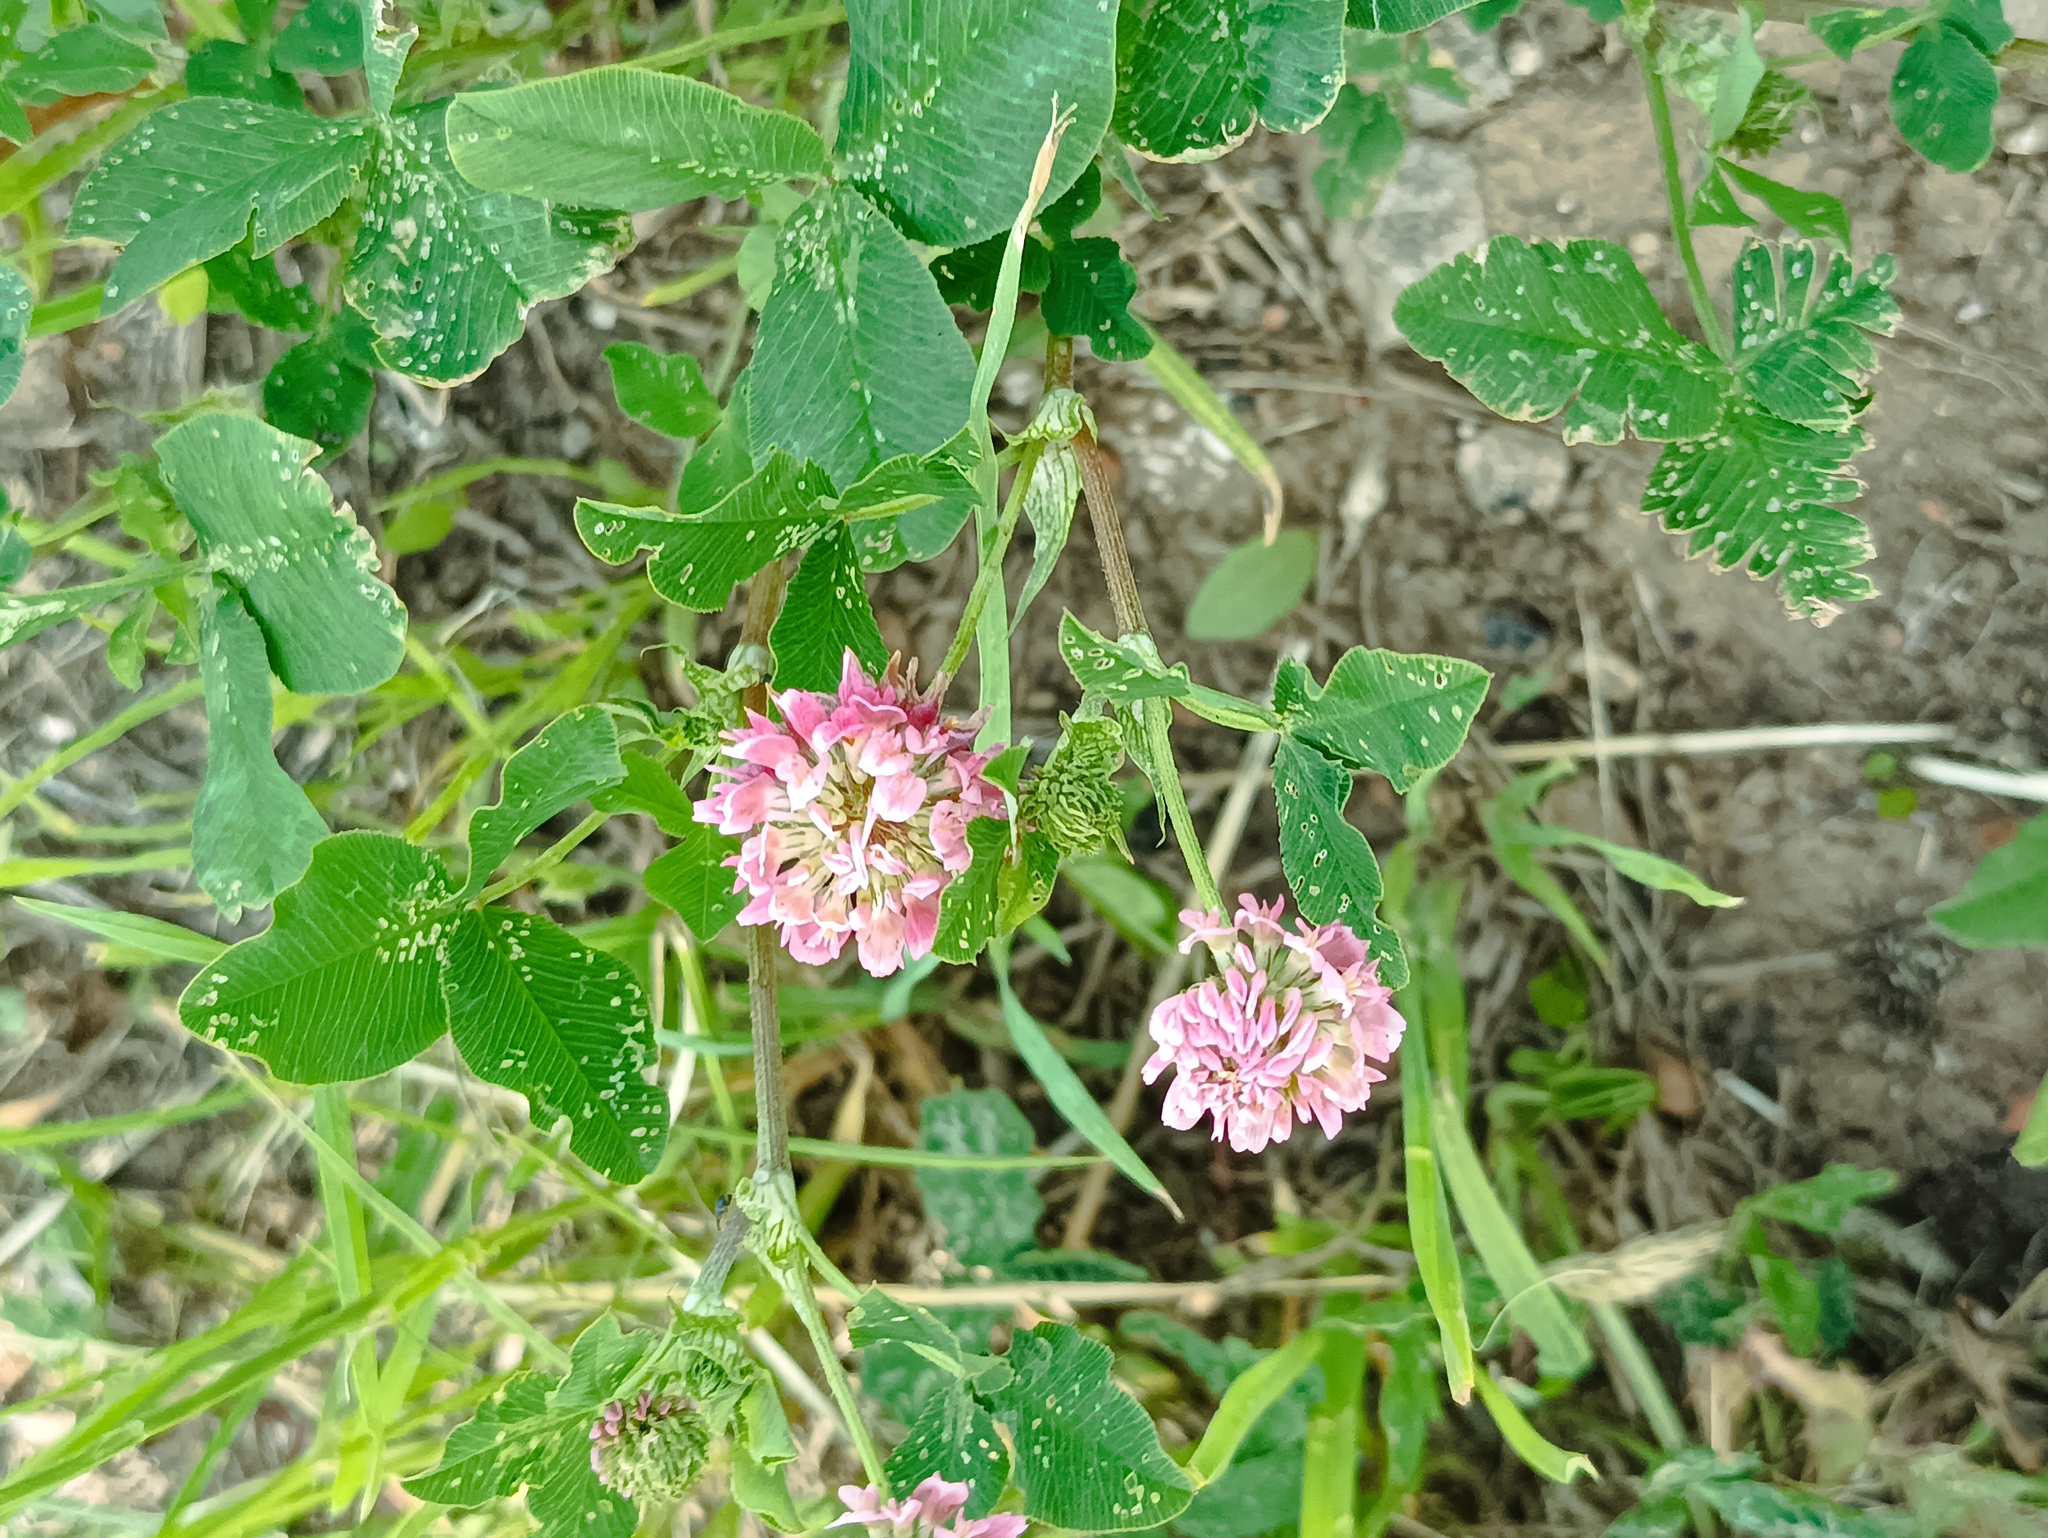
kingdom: Plantae
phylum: Tracheophyta
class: Magnoliopsida
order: Fabales
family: Fabaceae
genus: Trifolium
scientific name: Trifolium hybridum
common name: Alsike clover
